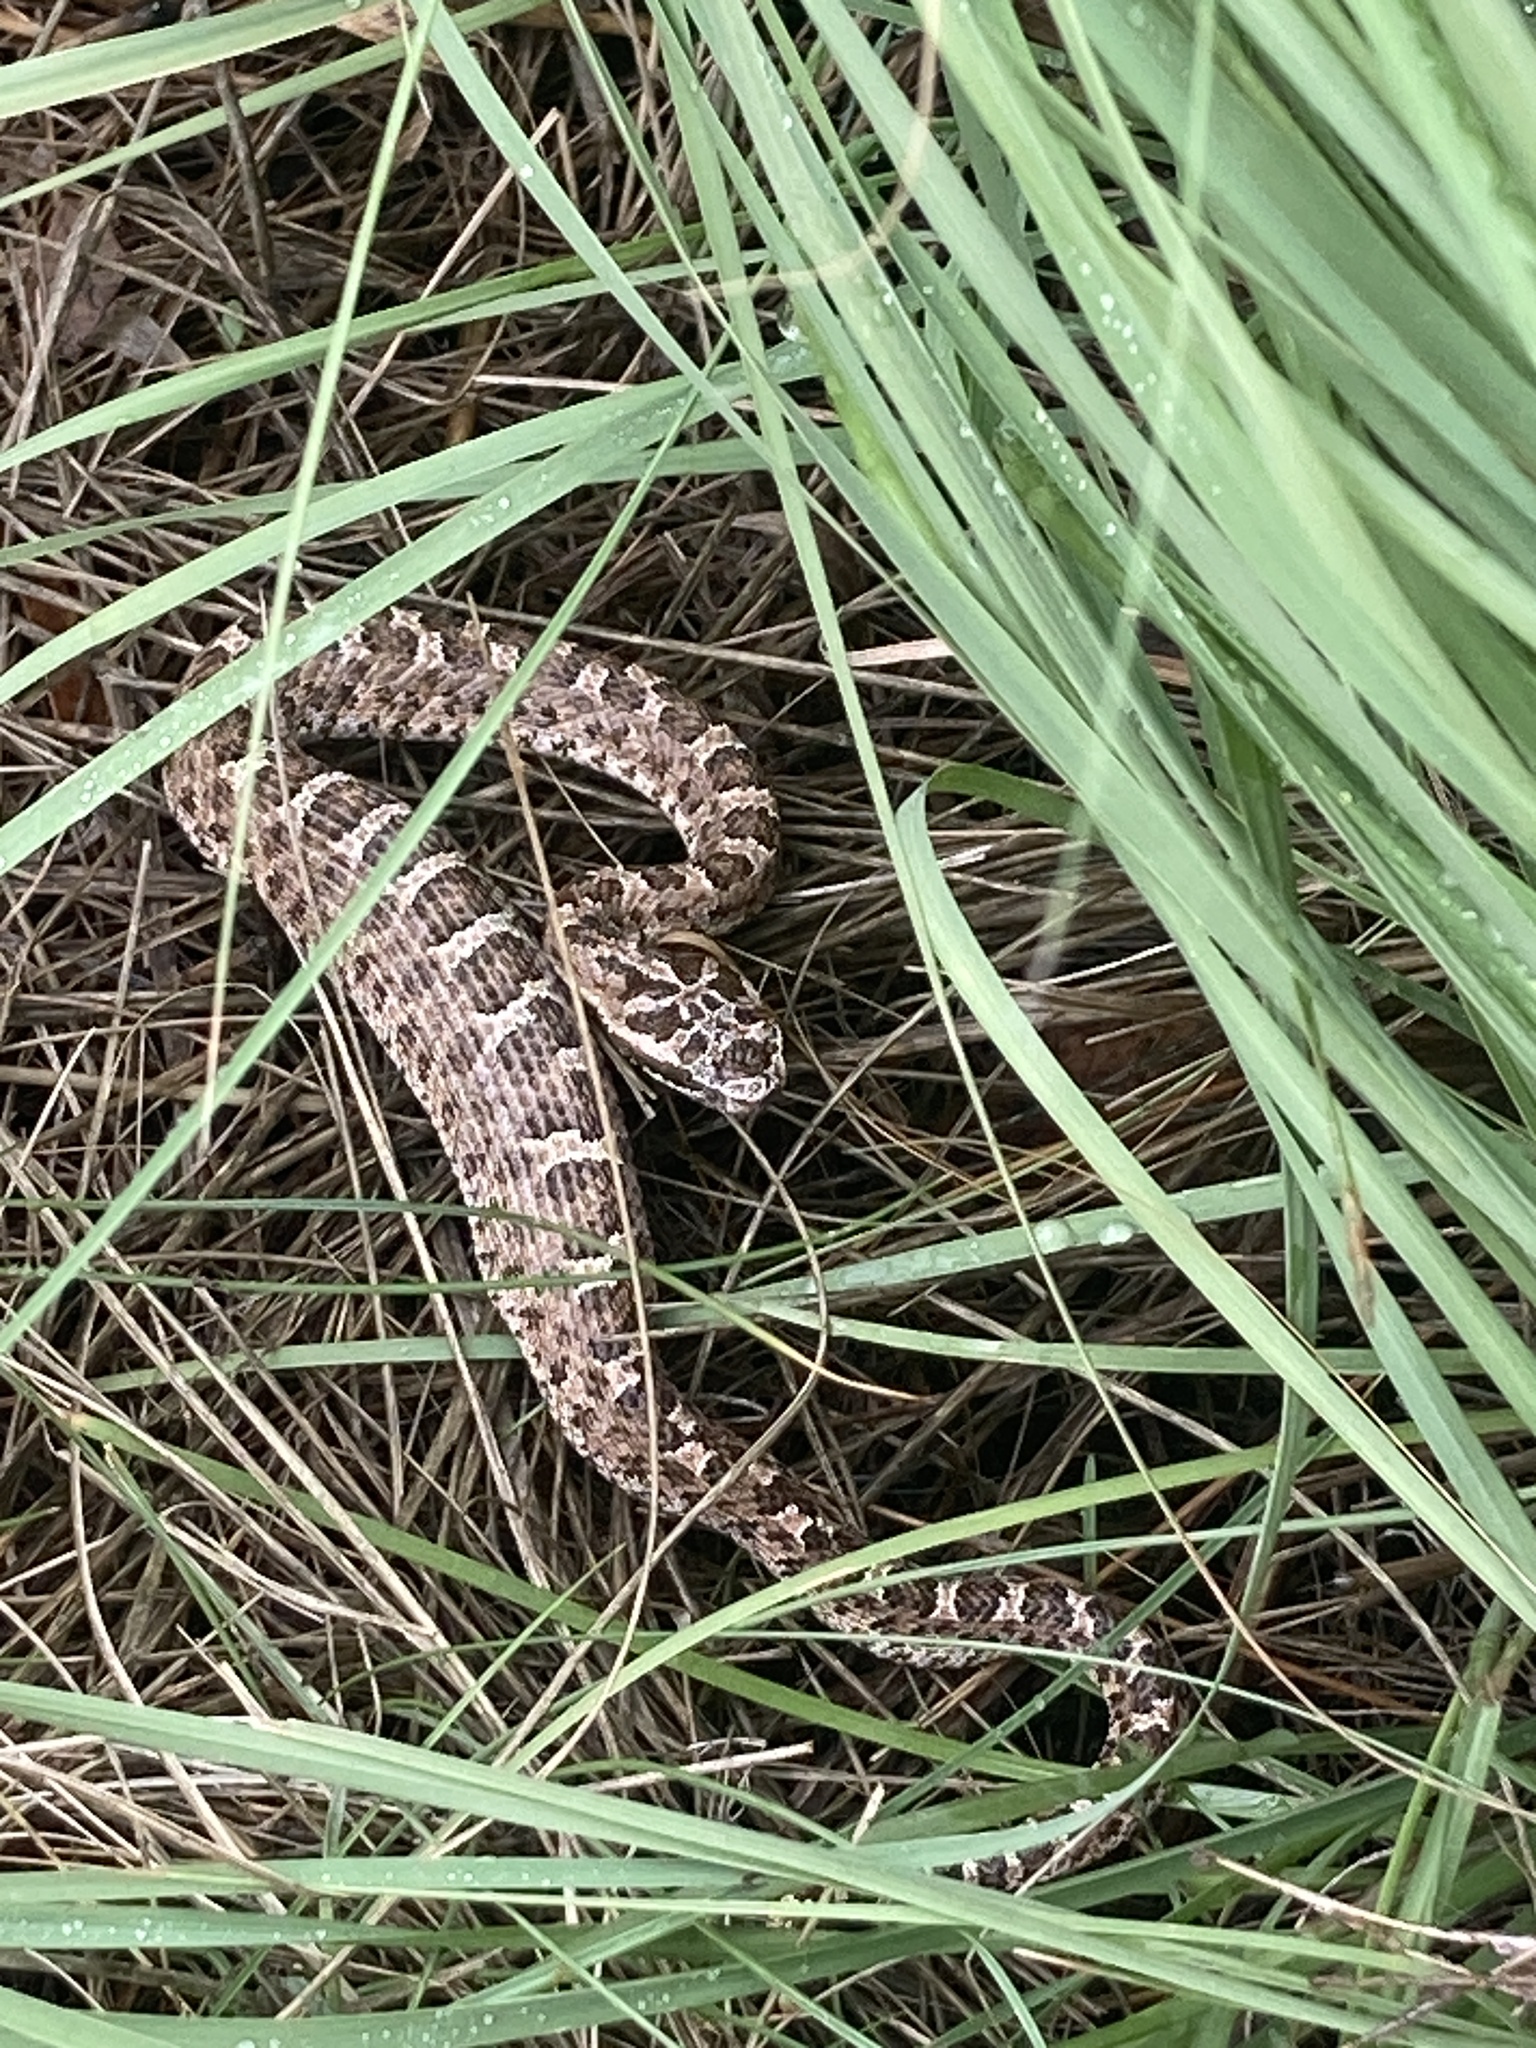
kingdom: Animalia
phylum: Chordata
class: Squamata
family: Viperidae
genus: Bothrops
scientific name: Bothrops ammodytoides
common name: Yararanata
